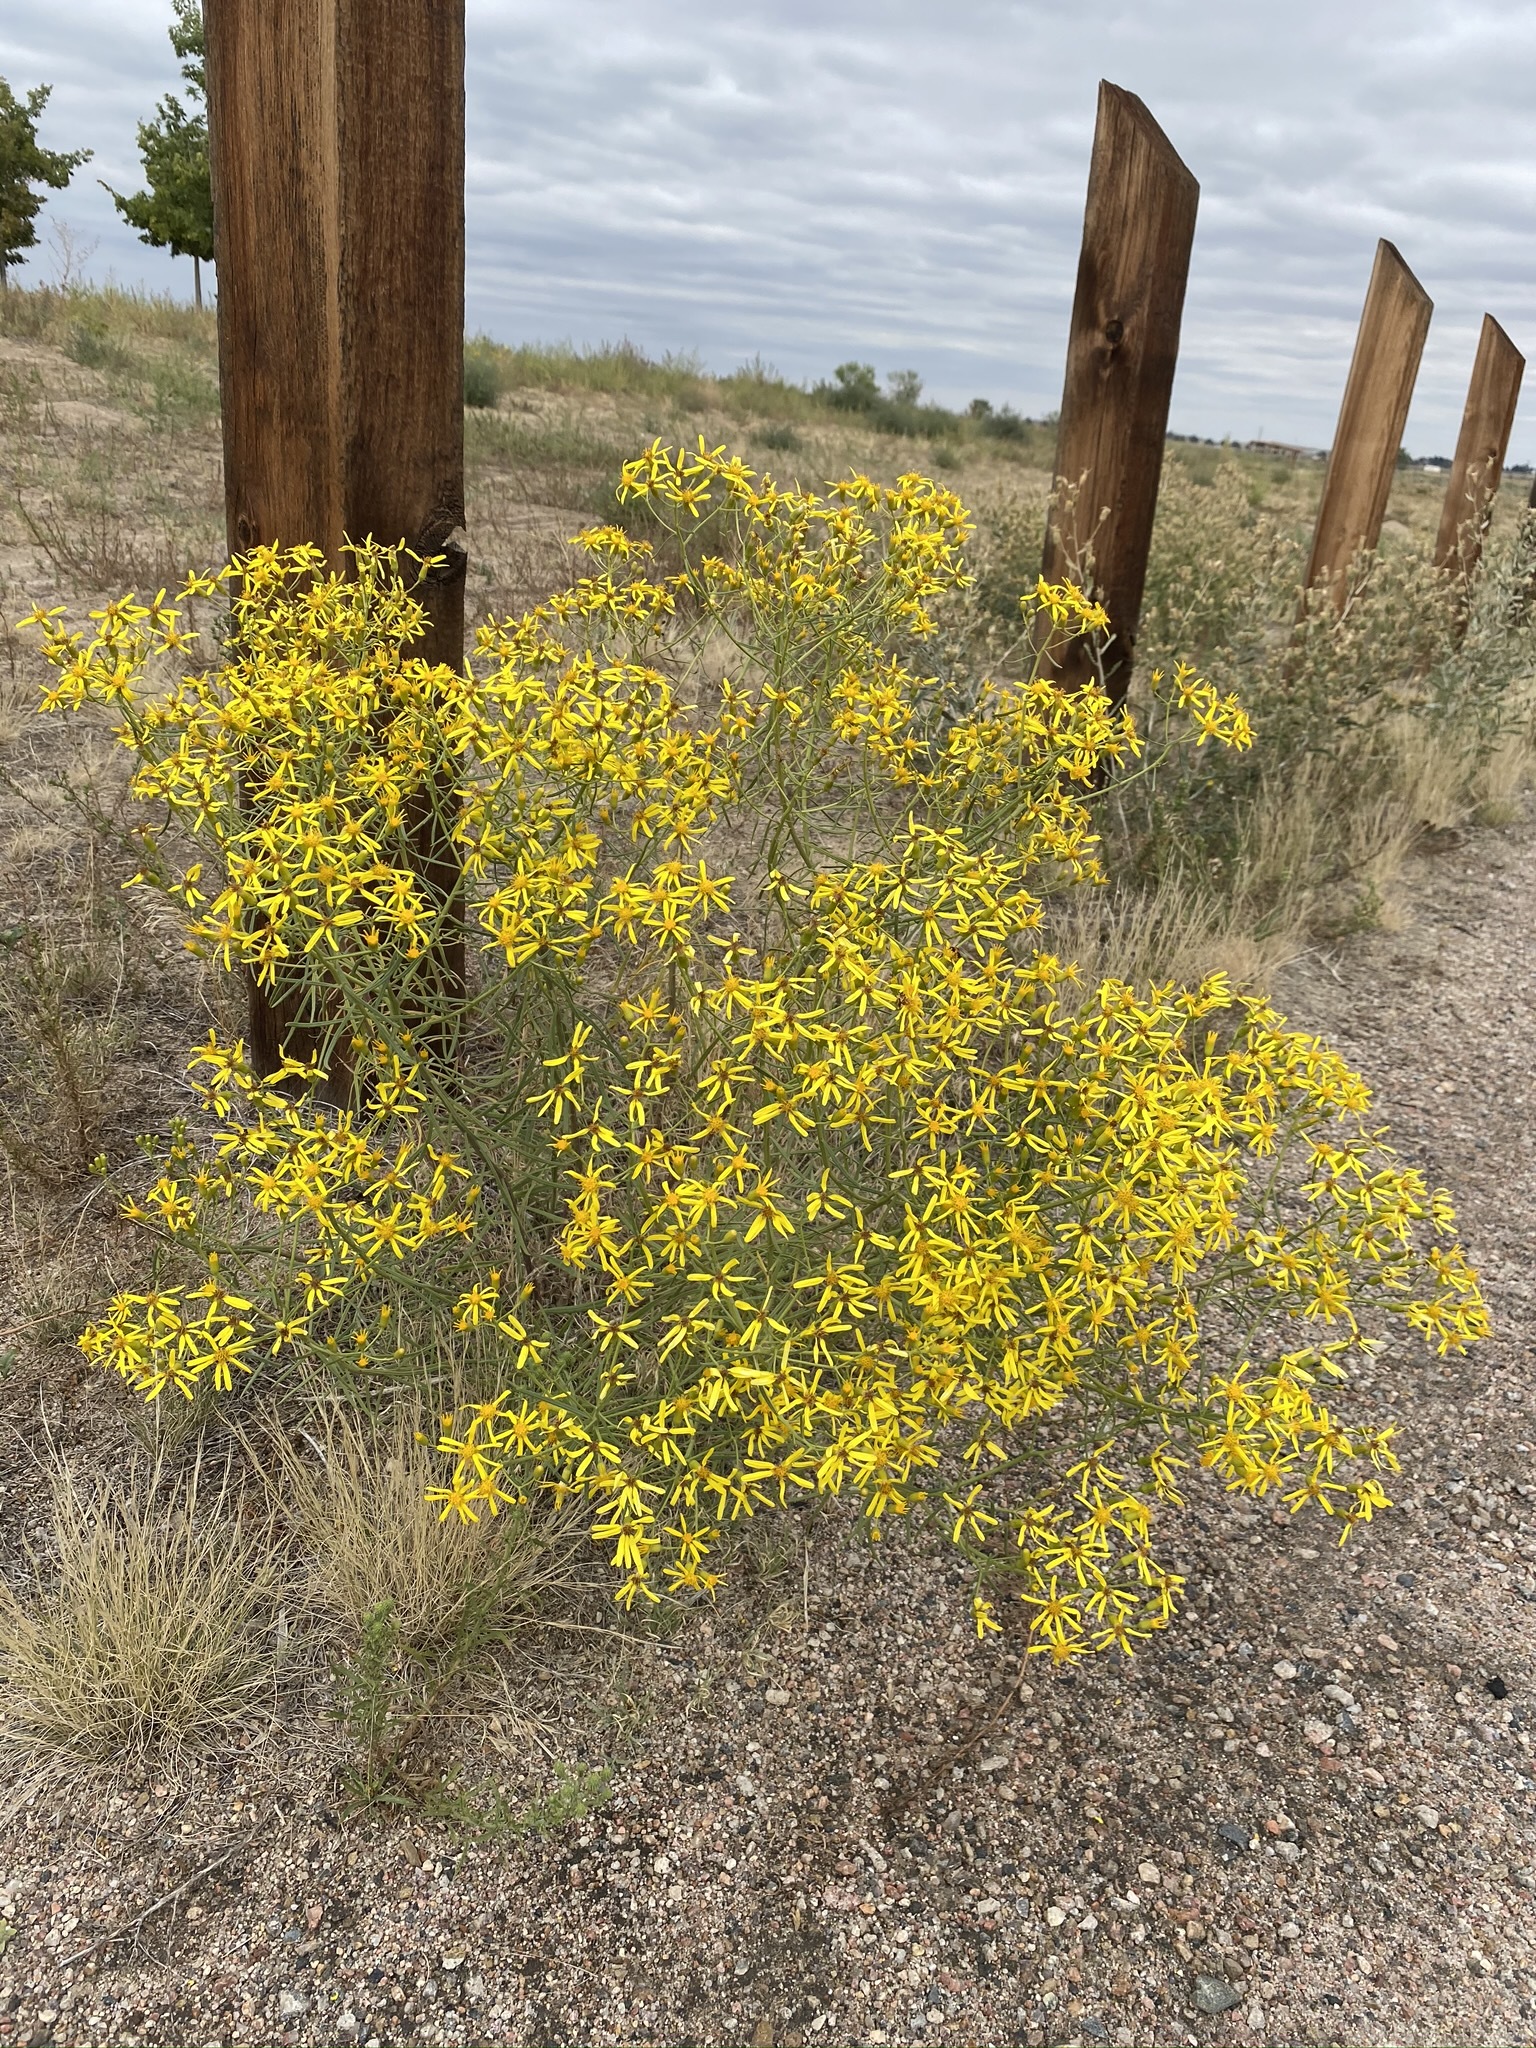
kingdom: Plantae
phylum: Tracheophyta
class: Magnoliopsida
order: Asterales
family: Asteraceae
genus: Senecio
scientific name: Senecio spartioides
